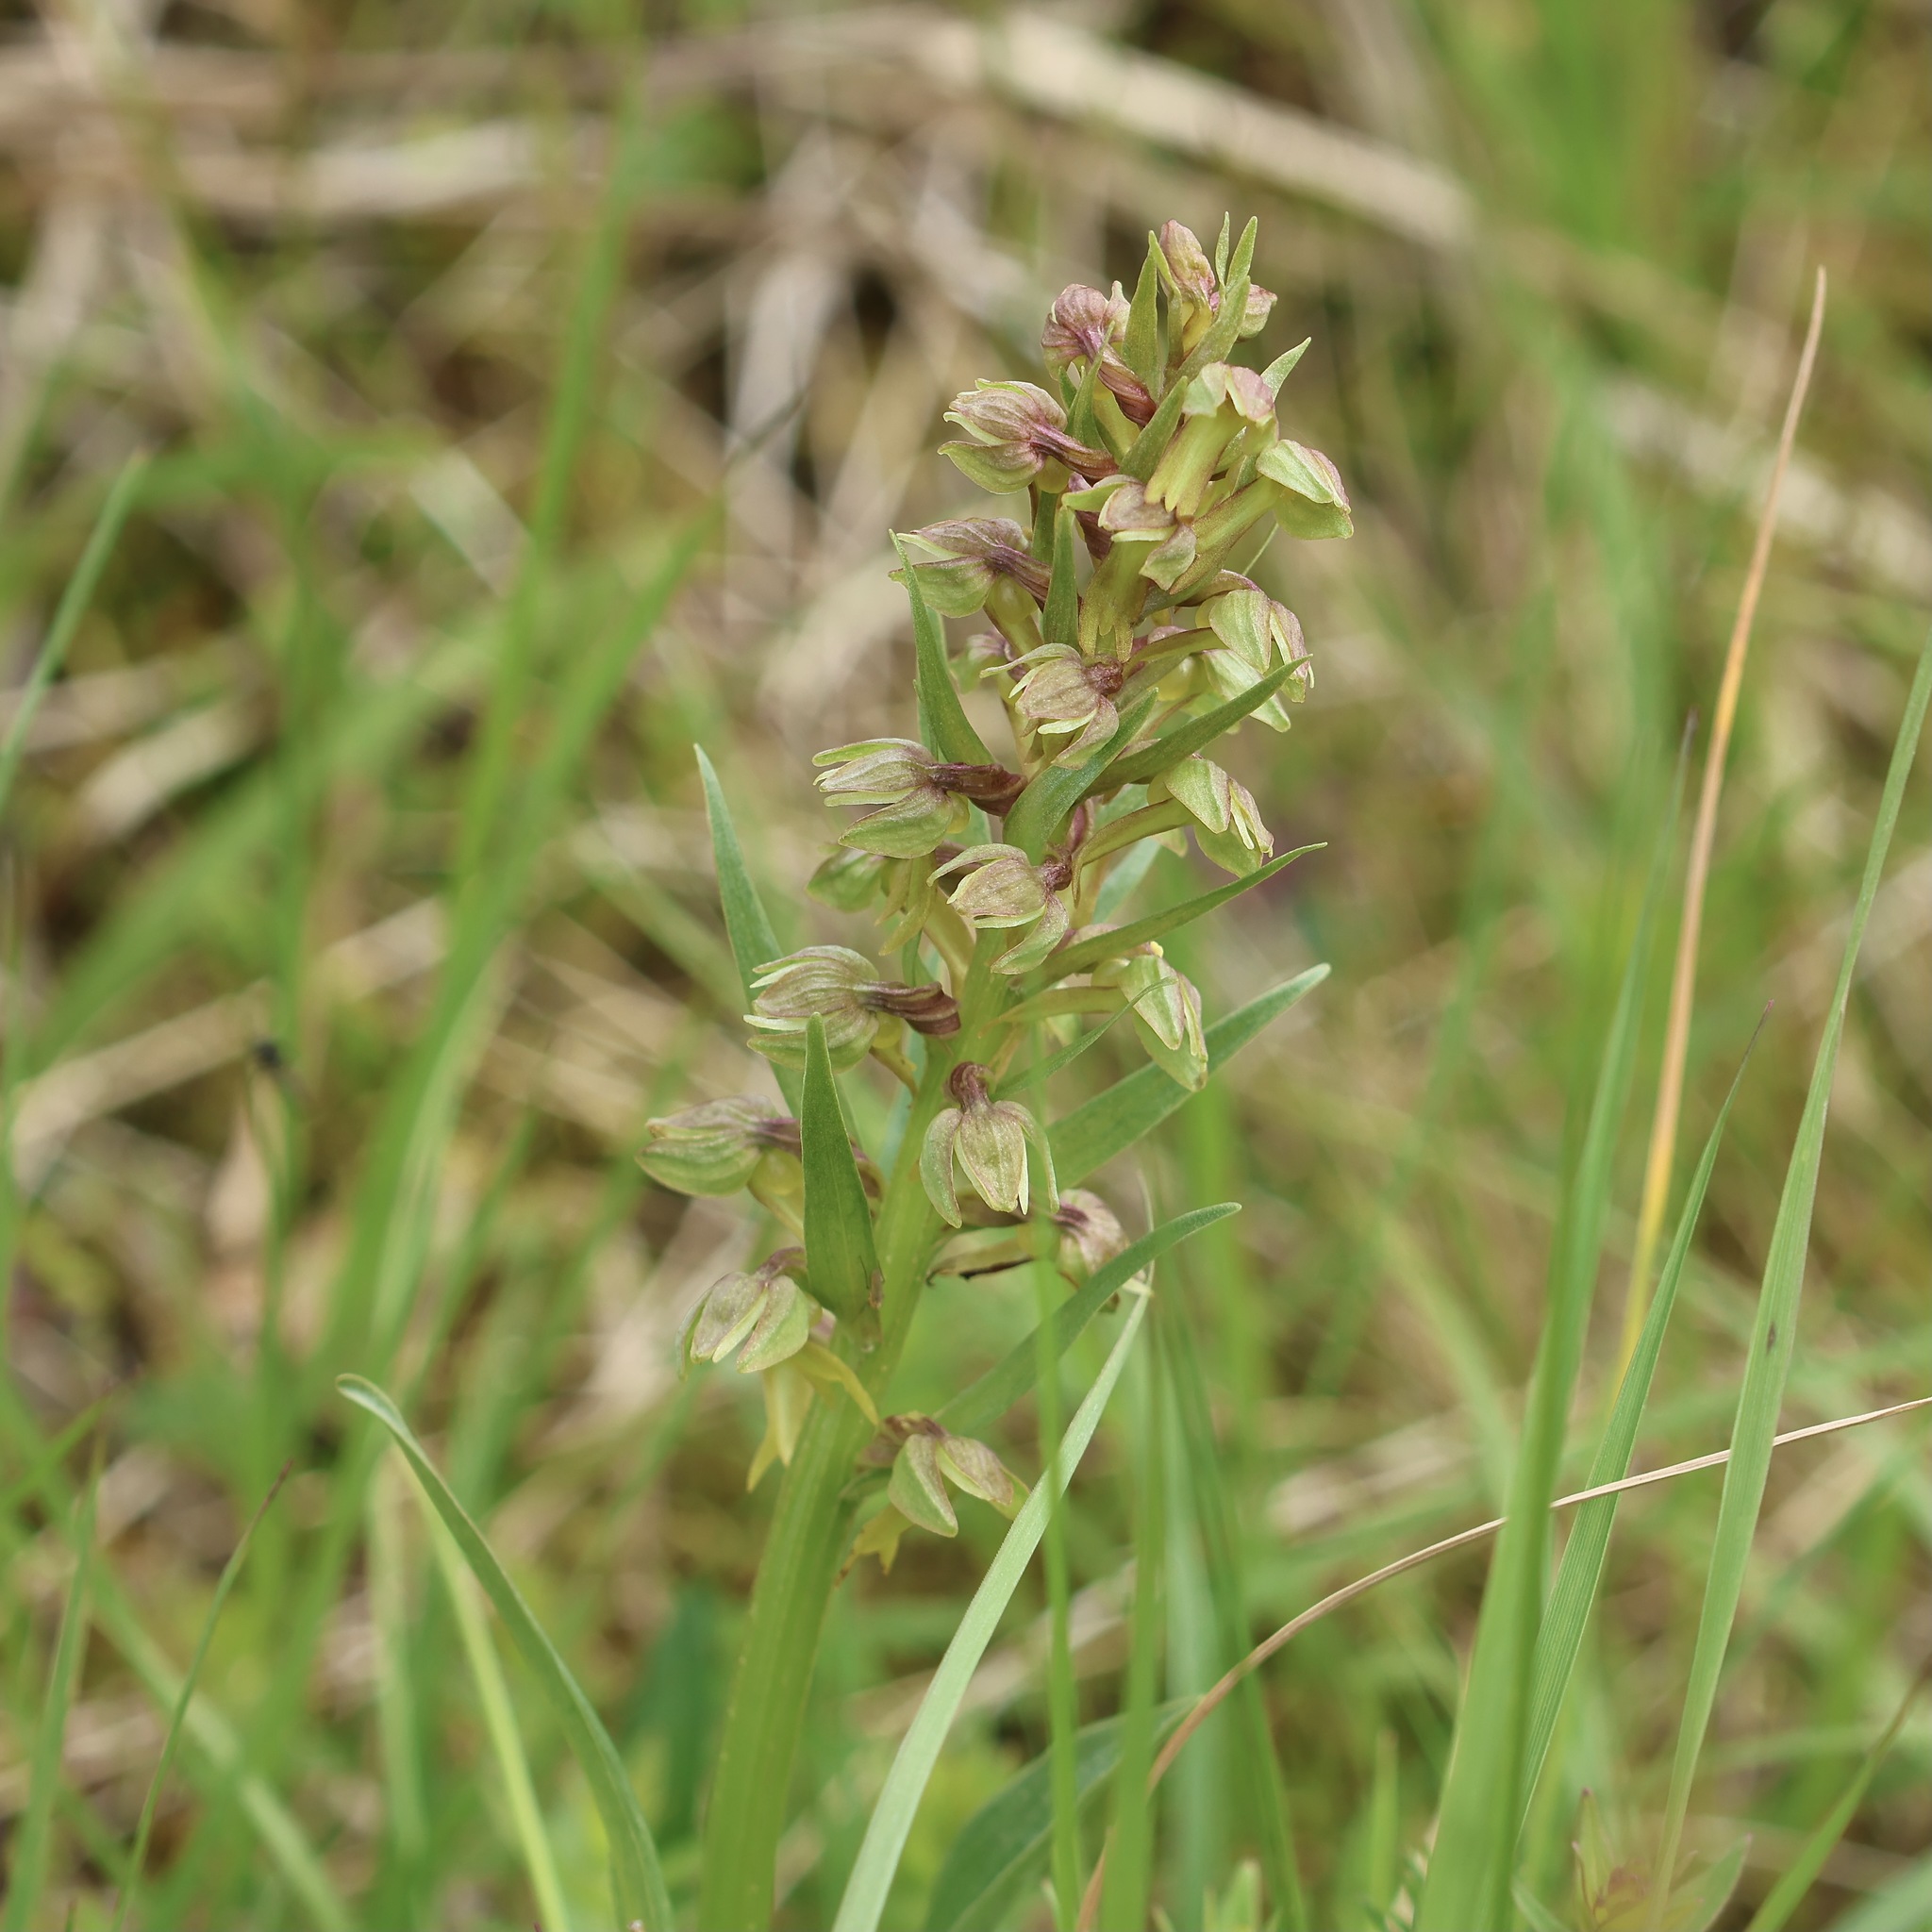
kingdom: Plantae
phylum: Tracheophyta
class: Liliopsida
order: Asparagales
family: Orchidaceae
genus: Dactylorhiza
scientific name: Dactylorhiza viridis
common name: Longbract frog orchid
